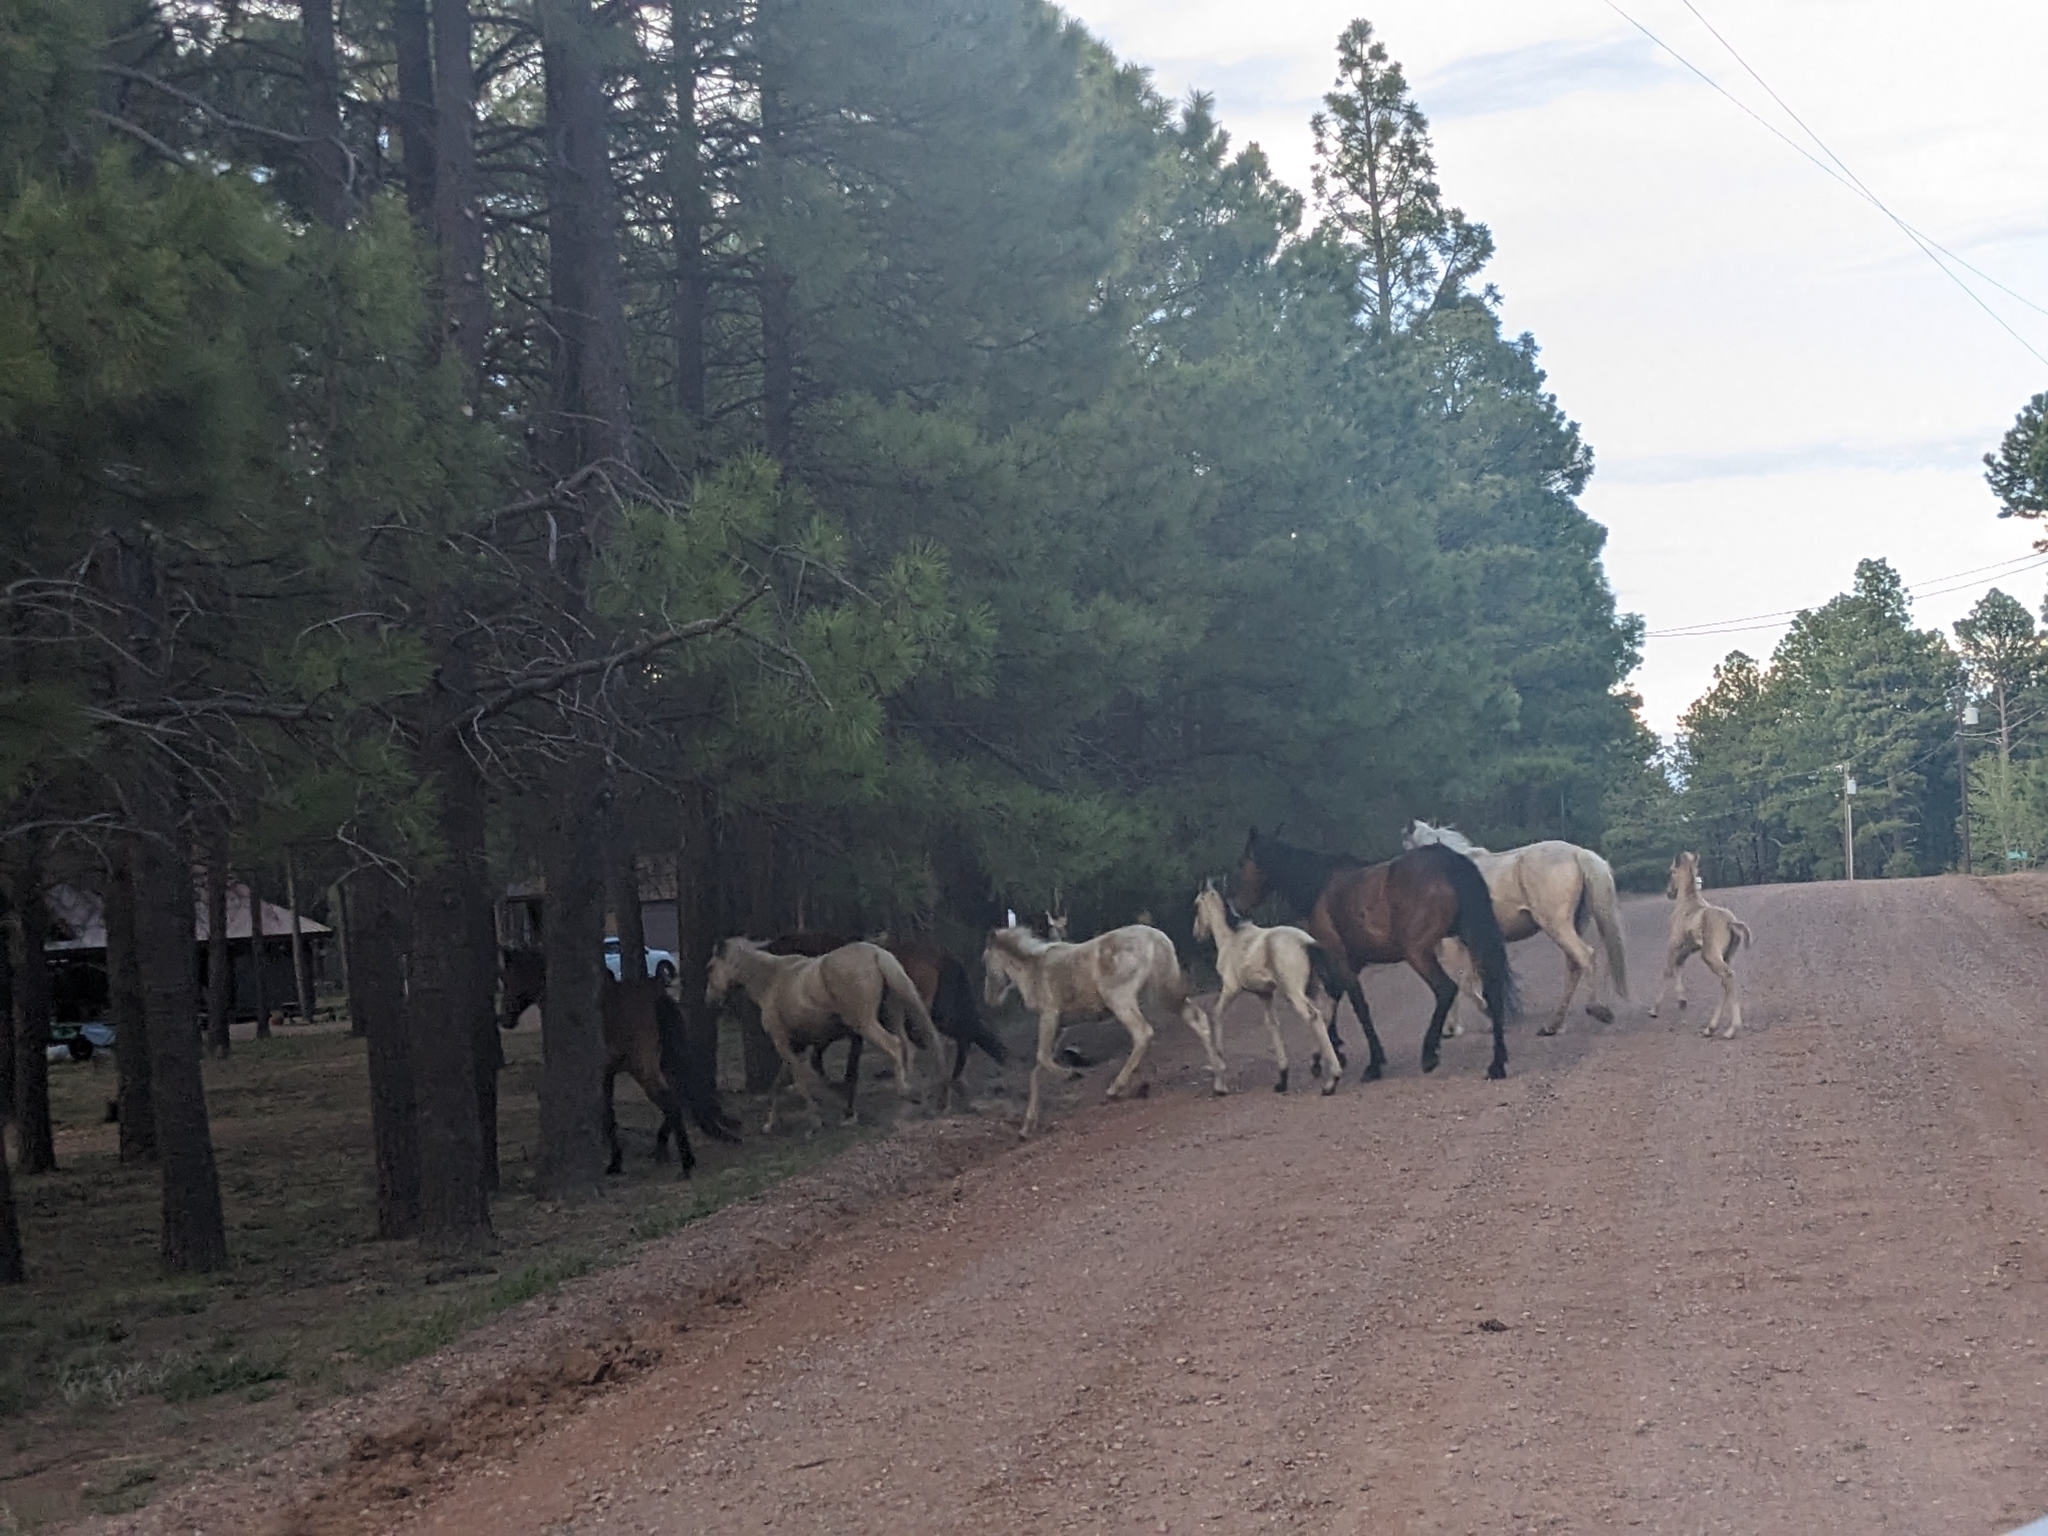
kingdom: Animalia
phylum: Chordata
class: Mammalia
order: Perissodactyla
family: Equidae
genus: Equus
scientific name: Equus caballus
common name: Horse
